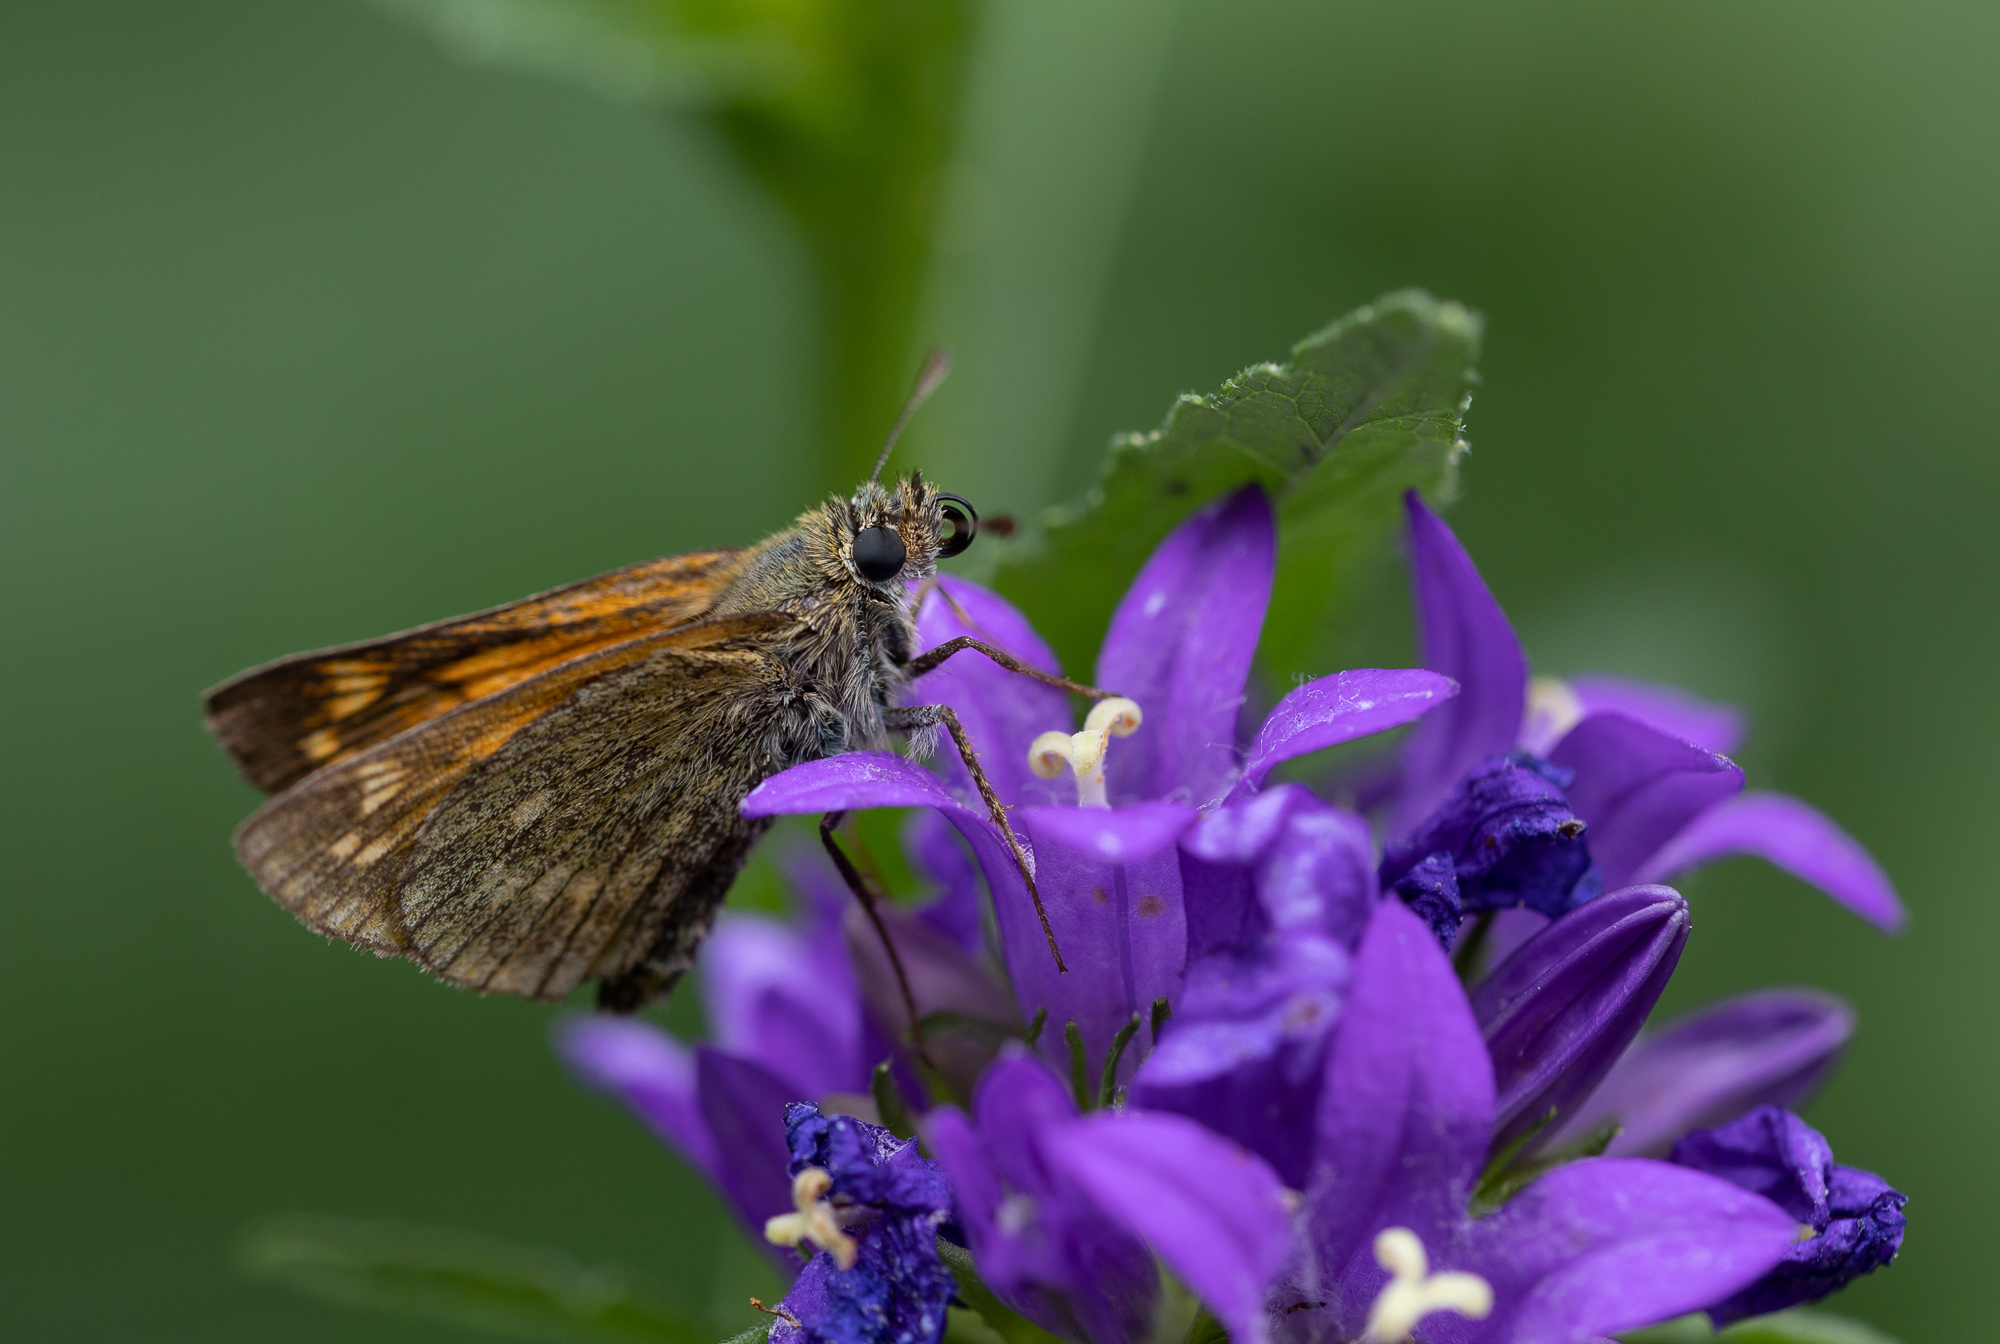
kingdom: Animalia
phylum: Arthropoda
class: Insecta
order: Lepidoptera
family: Hesperiidae
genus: Ochlodes
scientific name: Ochlodes venata
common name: Large skipper
